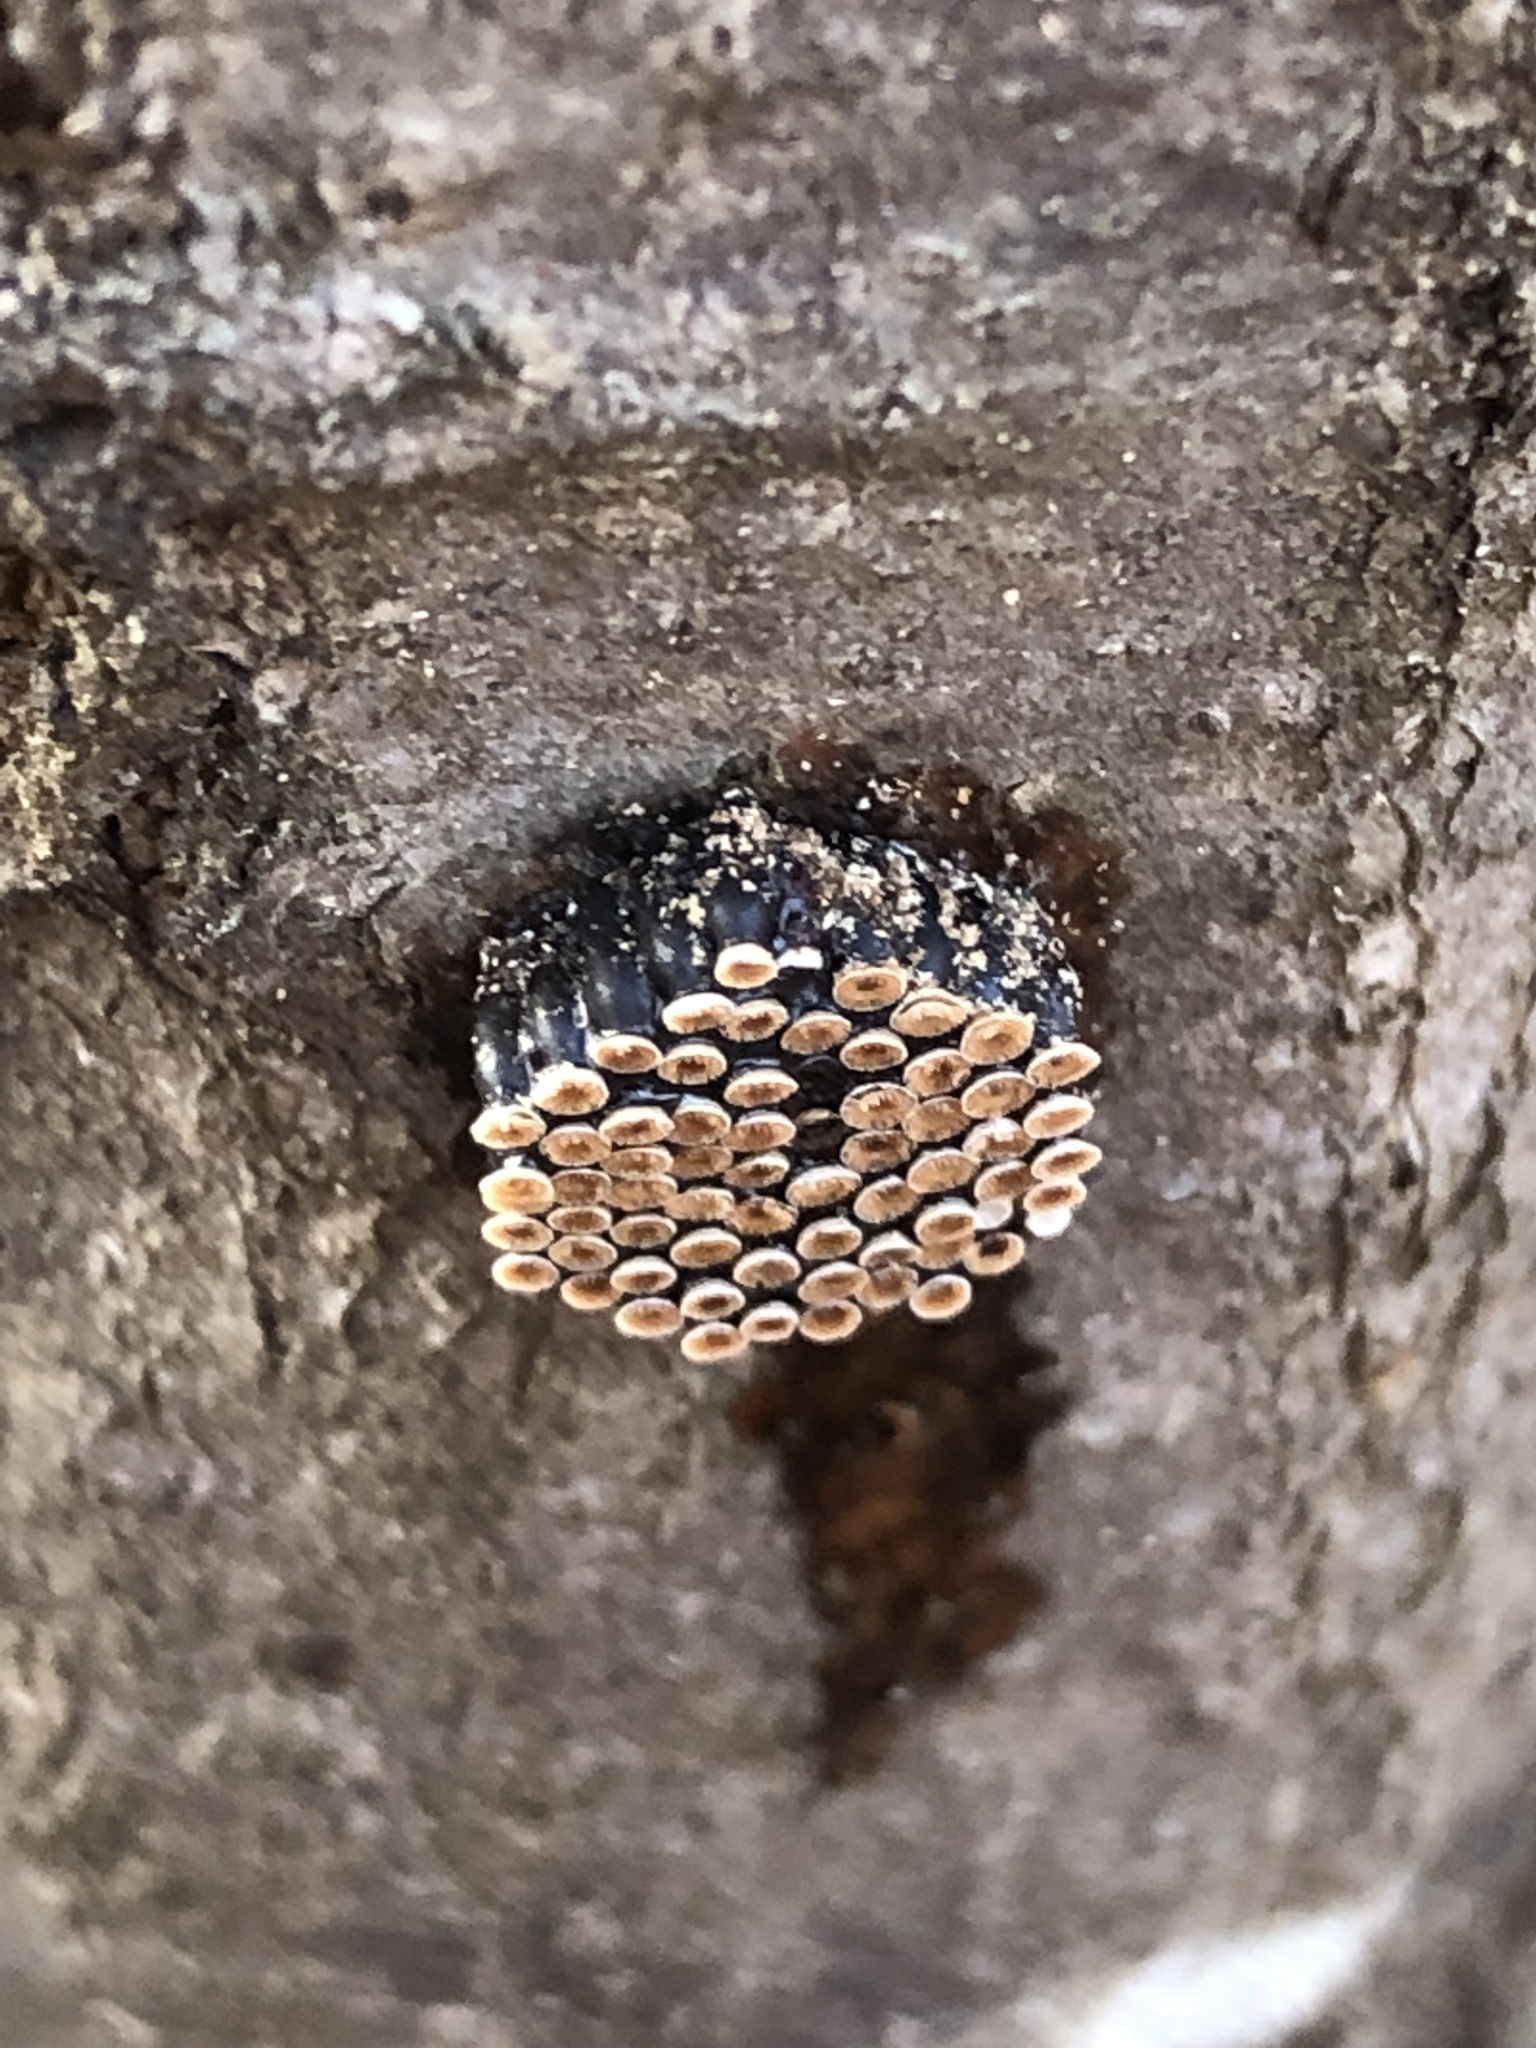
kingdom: Animalia
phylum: Arthropoda
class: Insecta
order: Hemiptera
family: Reduviidae
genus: Arilus
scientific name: Arilus cristatus
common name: North american wheel bug
